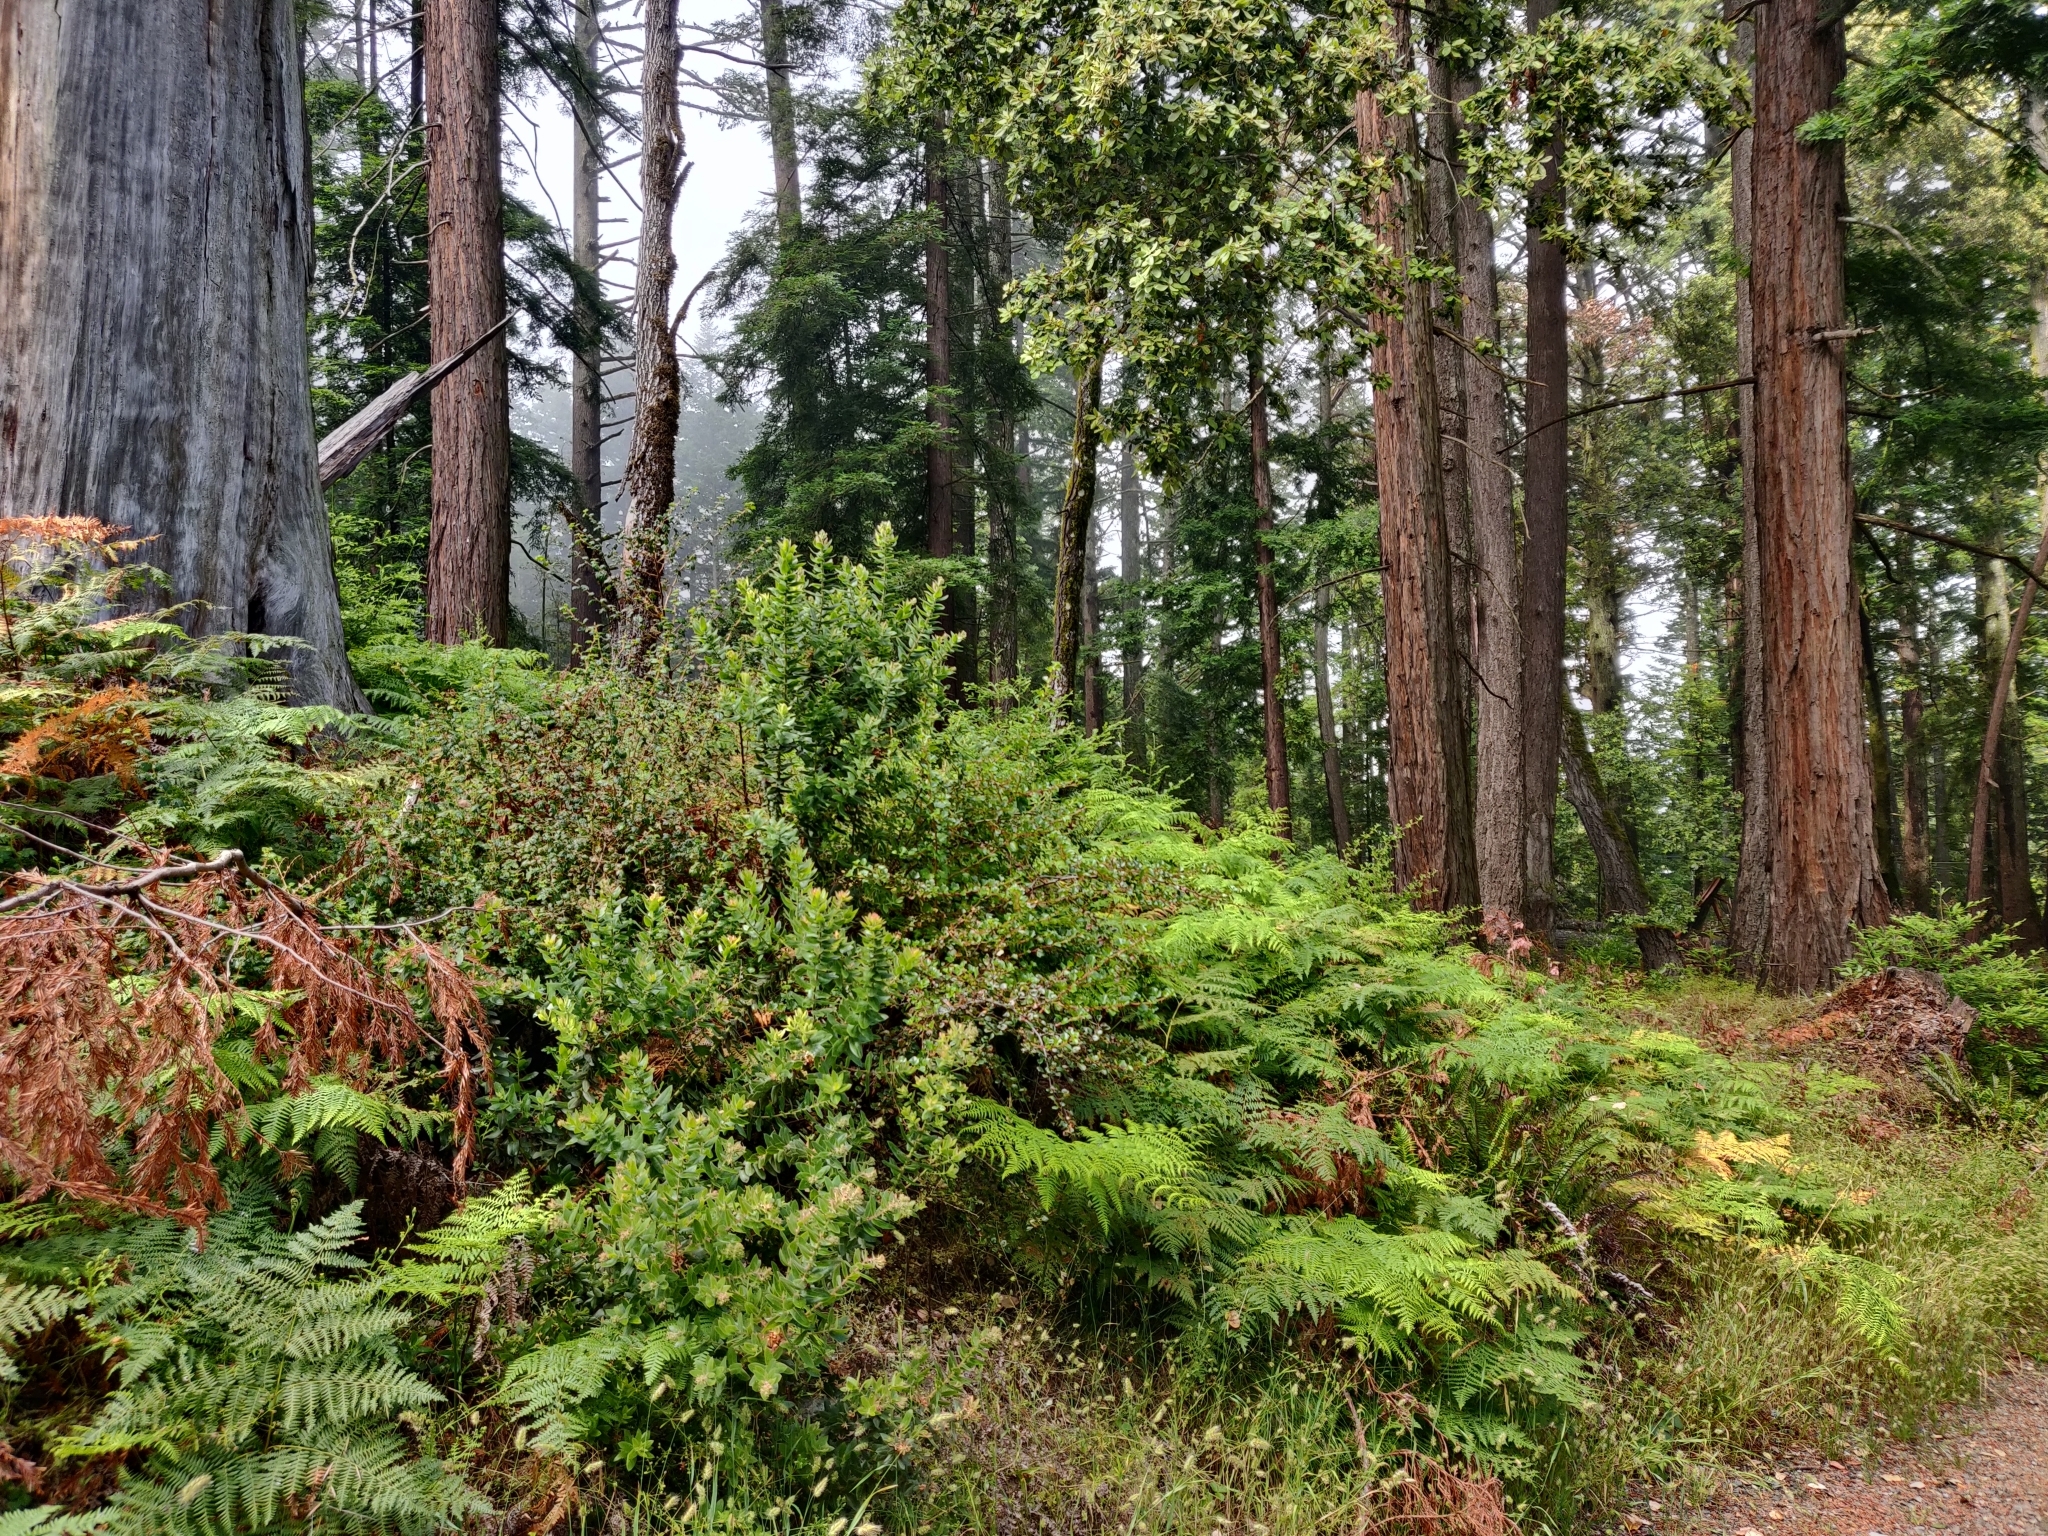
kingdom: Plantae
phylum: Tracheophyta
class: Magnoliopsida
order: Ericales
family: Ericaceae
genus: Arctostaphylos
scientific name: Arctostaphylos regismontana
